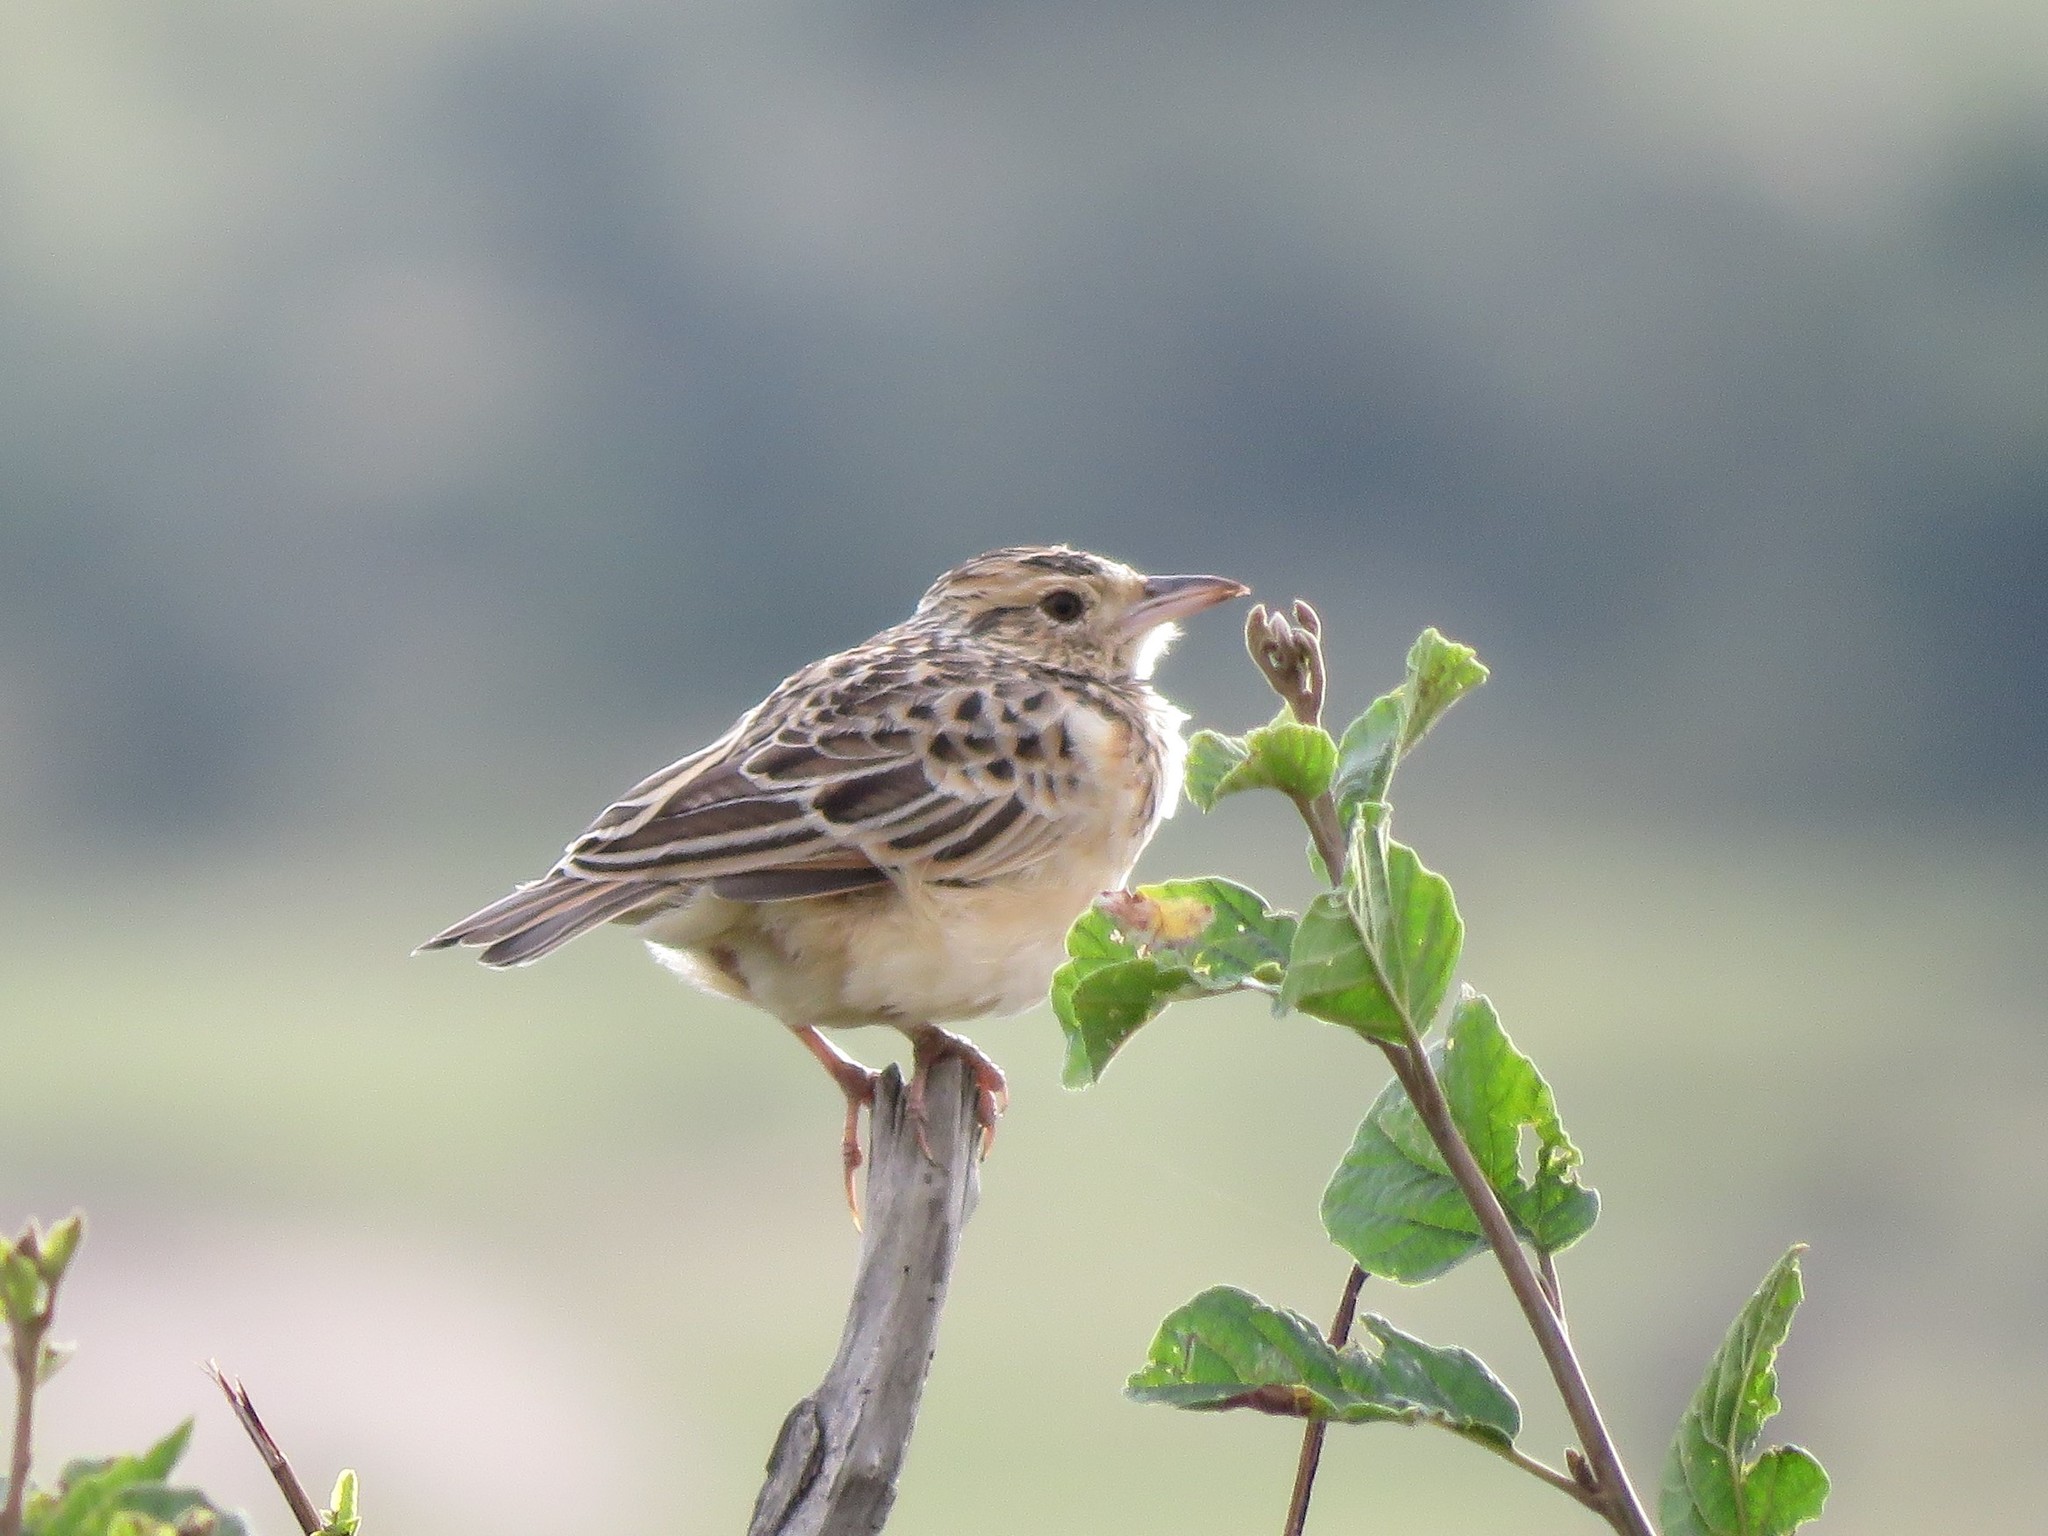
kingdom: Animalia
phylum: Chordata
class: Aves
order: Passeriformes
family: Alaudidae
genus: Mirafra
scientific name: Mirafra africana
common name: Rufous-naped lark
